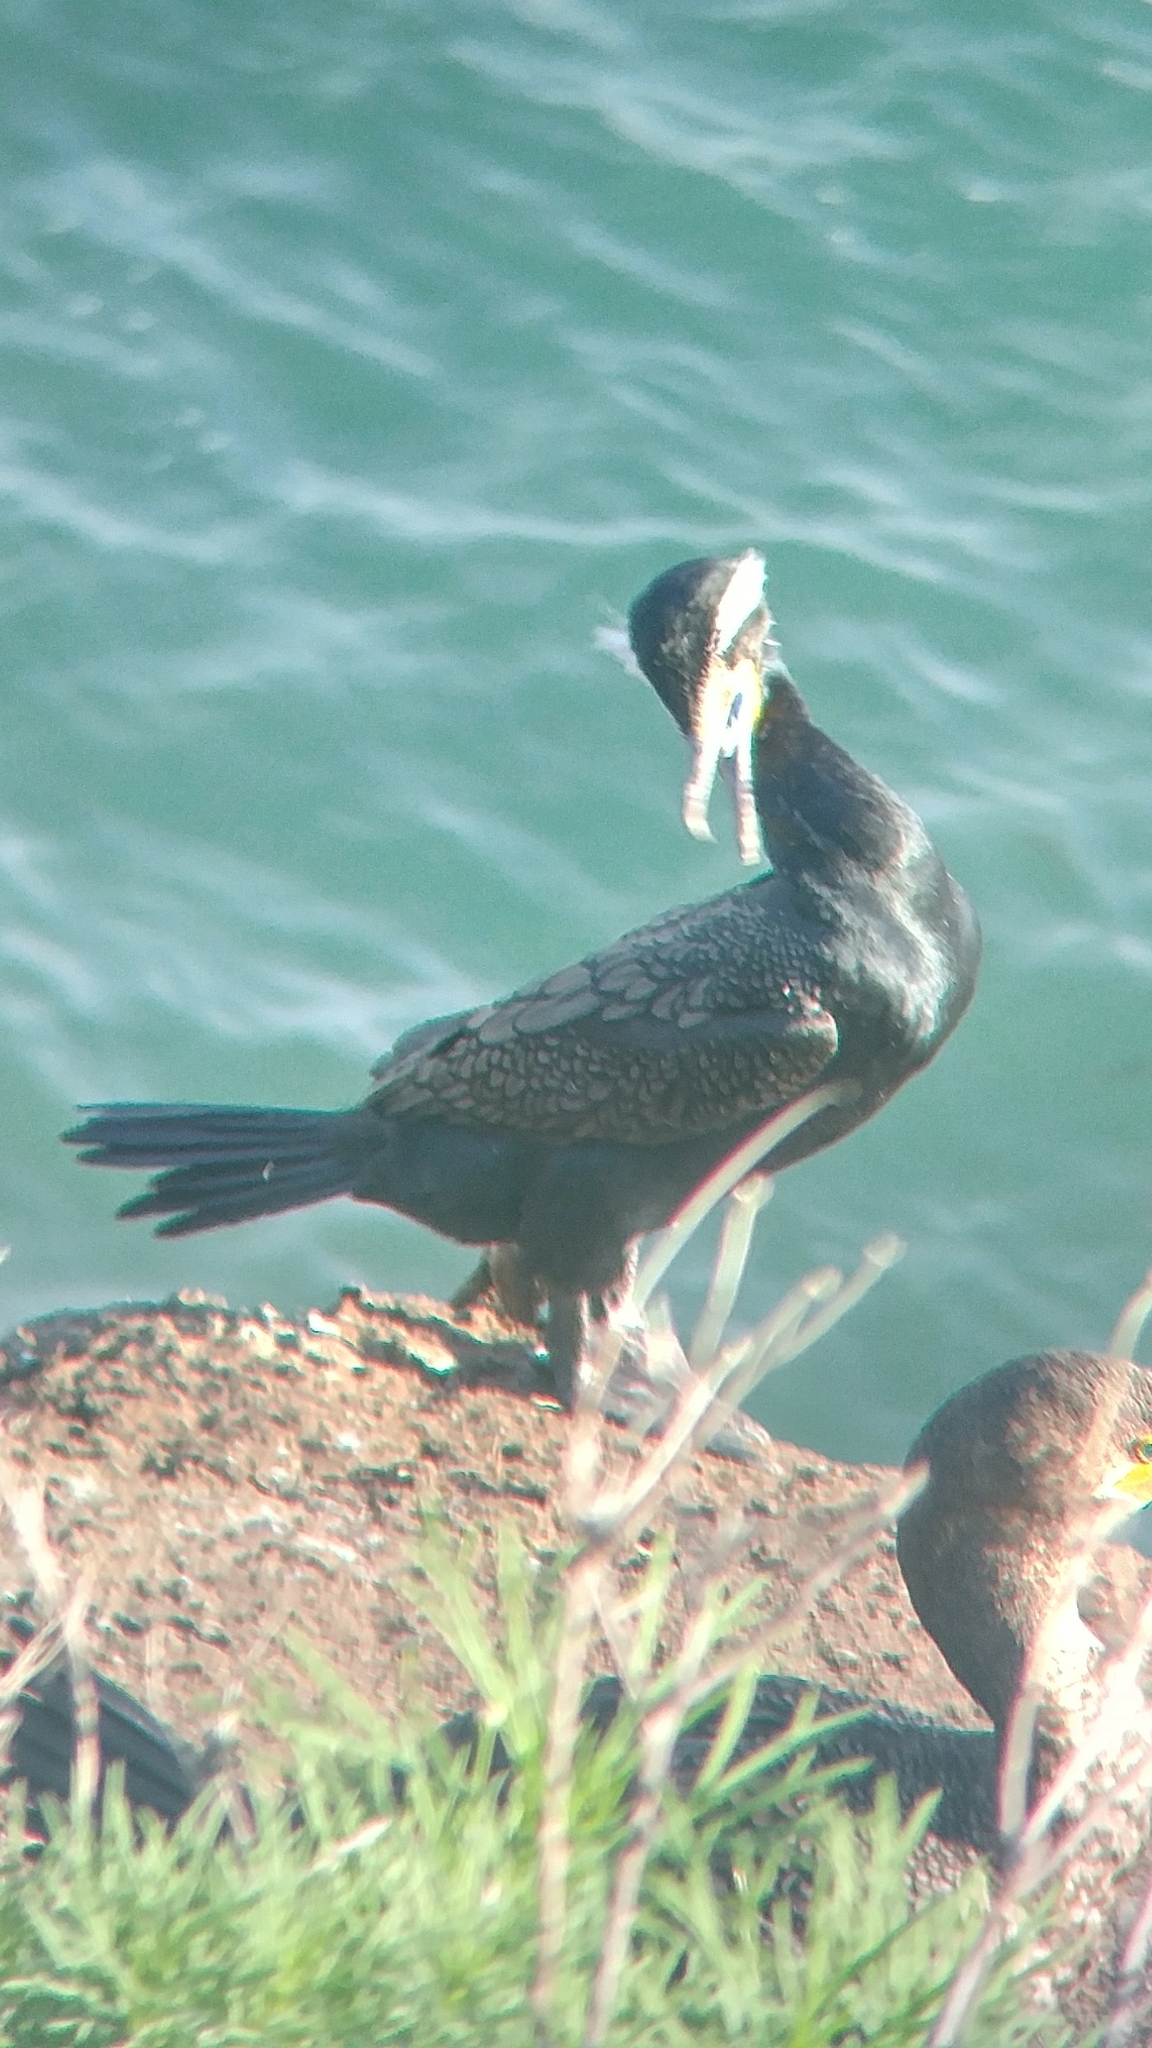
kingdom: Animalia
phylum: Chordata
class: Aves
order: Suliformes
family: Phalacrocoracidae
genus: Phalacrocorax
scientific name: Phalacrocorax auritus
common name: Double-crested cormorant
